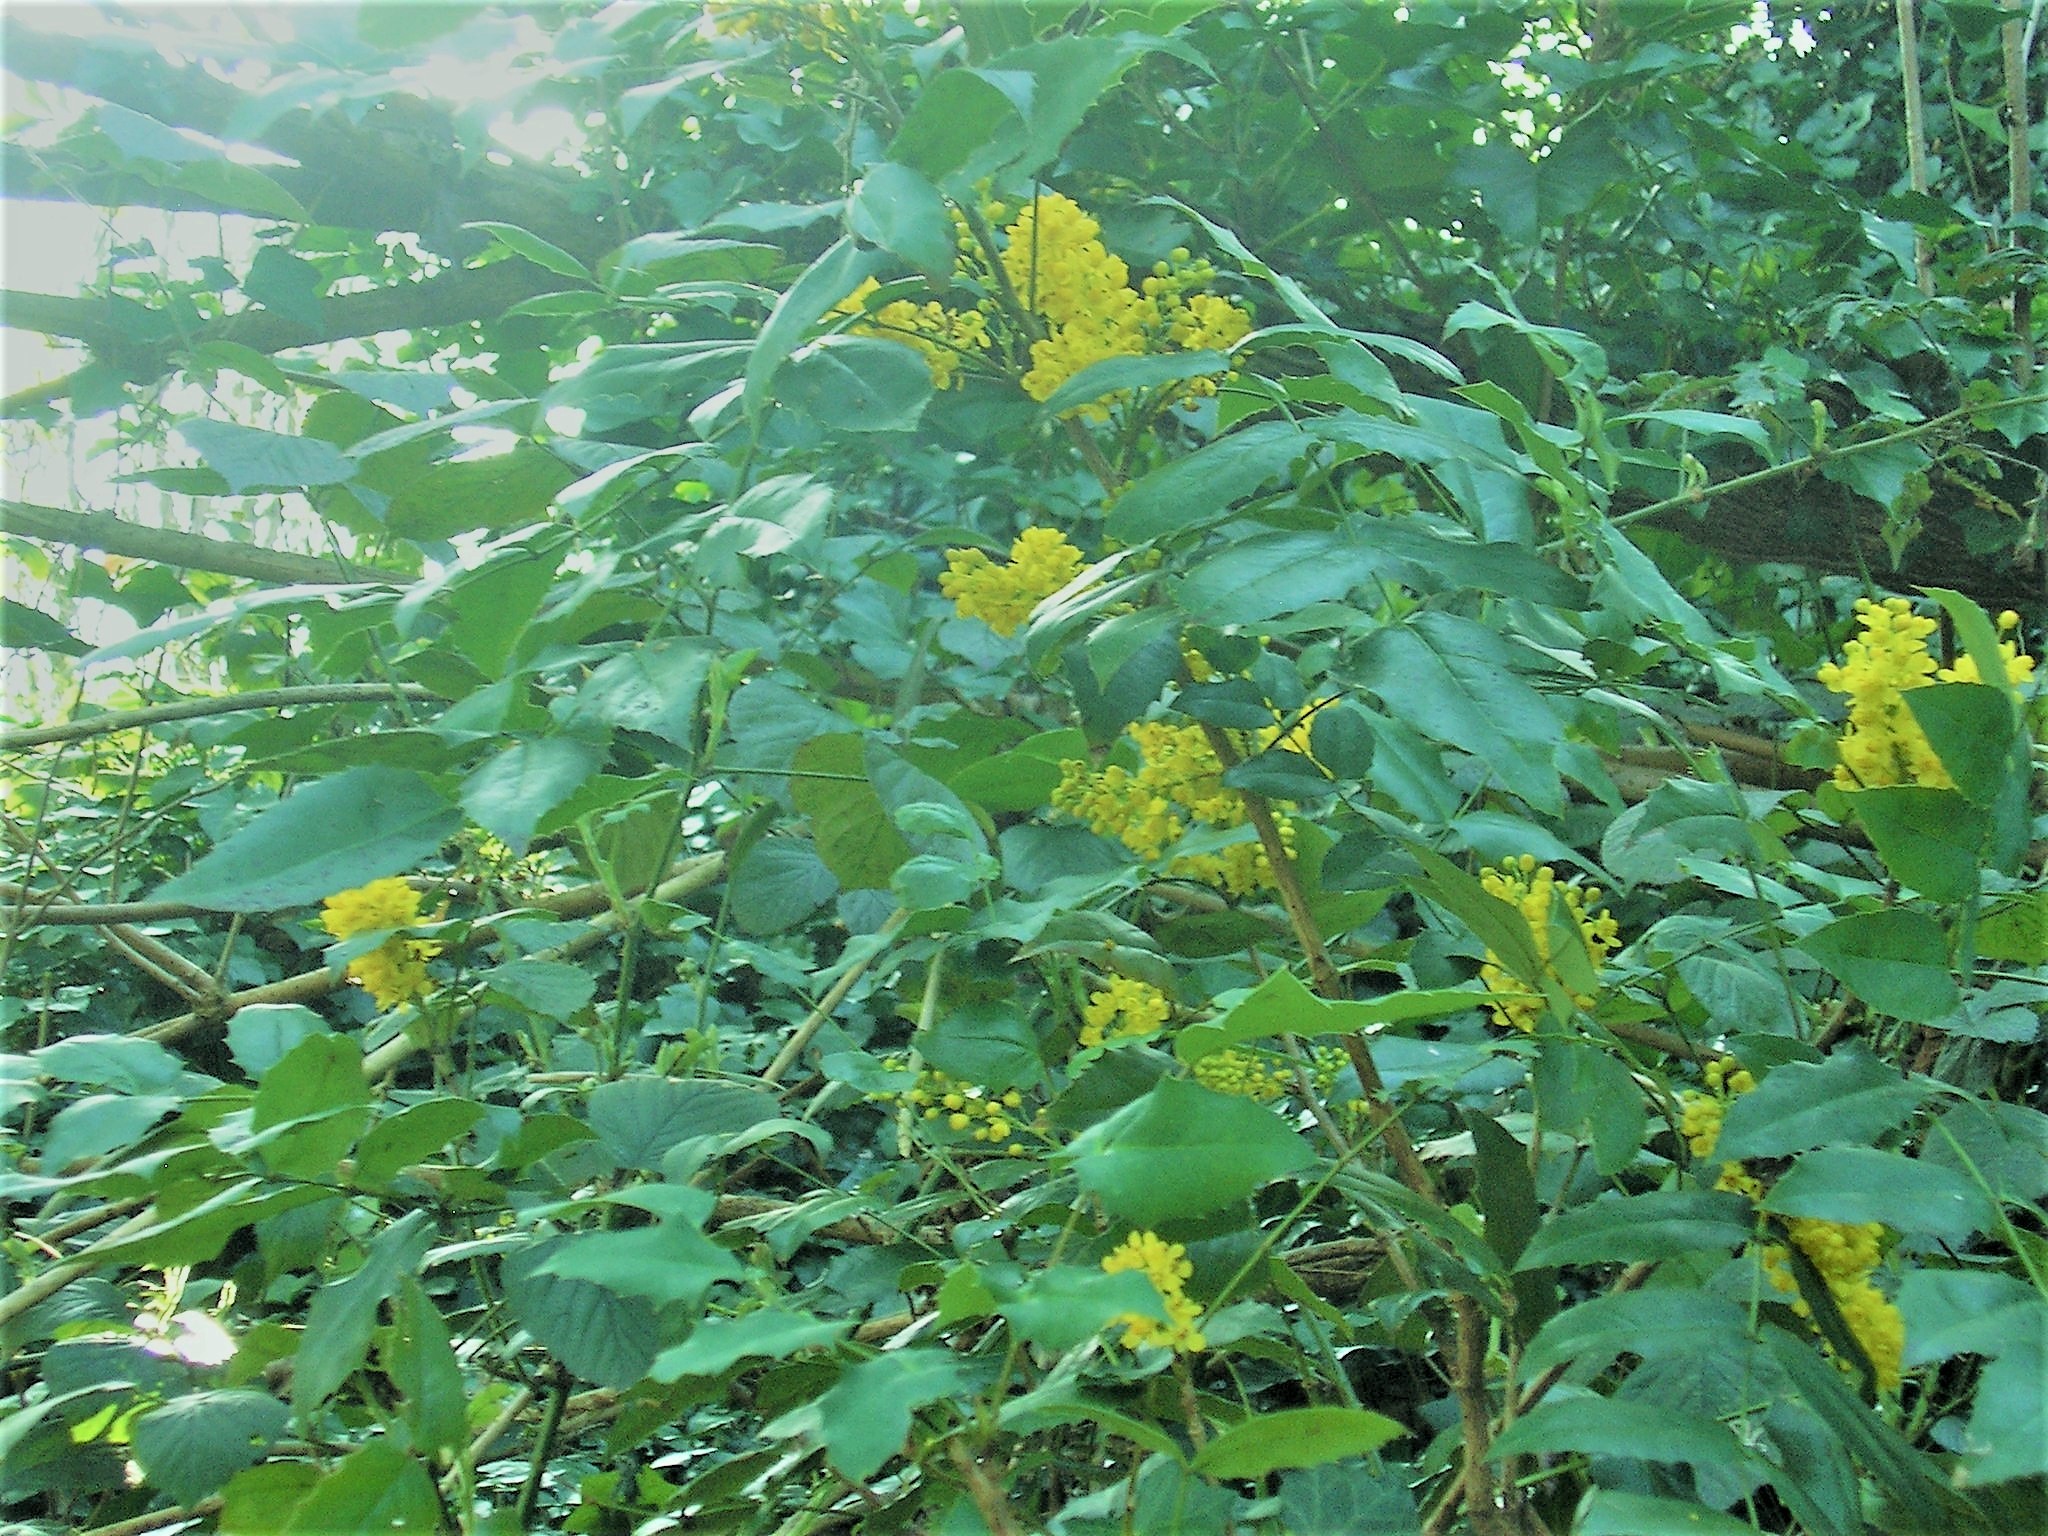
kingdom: Plantae
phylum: Tracheophyta
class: Magnoliopsida
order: Ranunculales
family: Berberidaceae
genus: Mahonia
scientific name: Mahonia aquifolium
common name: Oregon-grape
